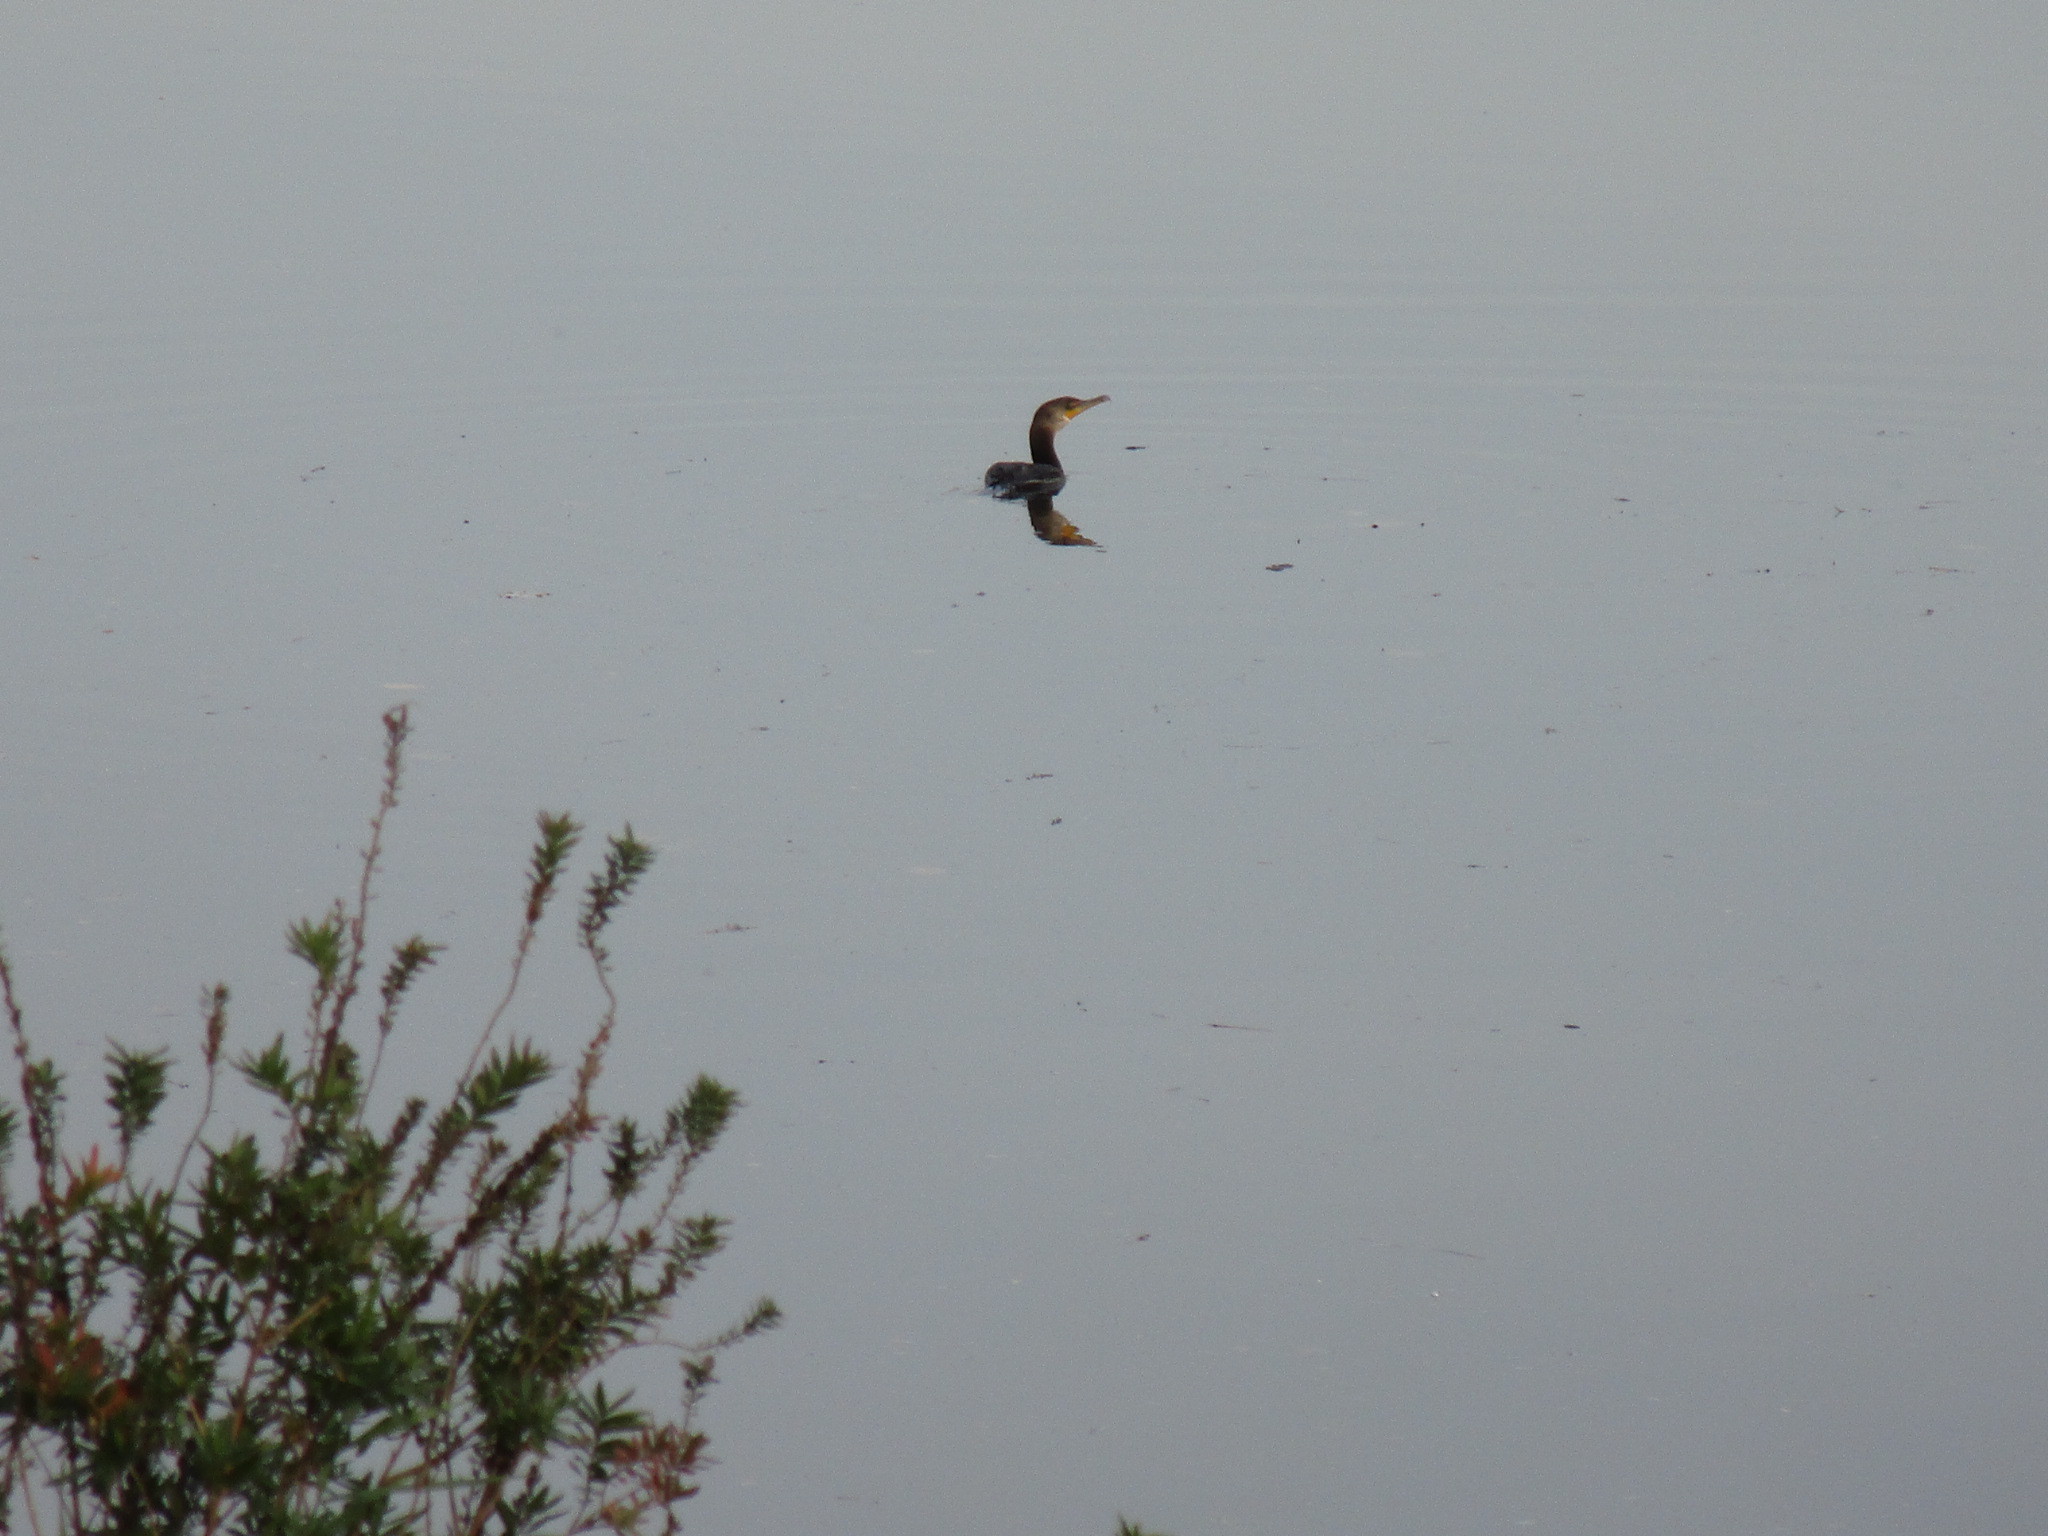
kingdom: Animalia
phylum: Chordata
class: Aves
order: Suliformes
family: Phalacrocoracidae
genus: Phalacrocorax
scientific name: Phalacrocorax auritus
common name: Double-crested cormorant
